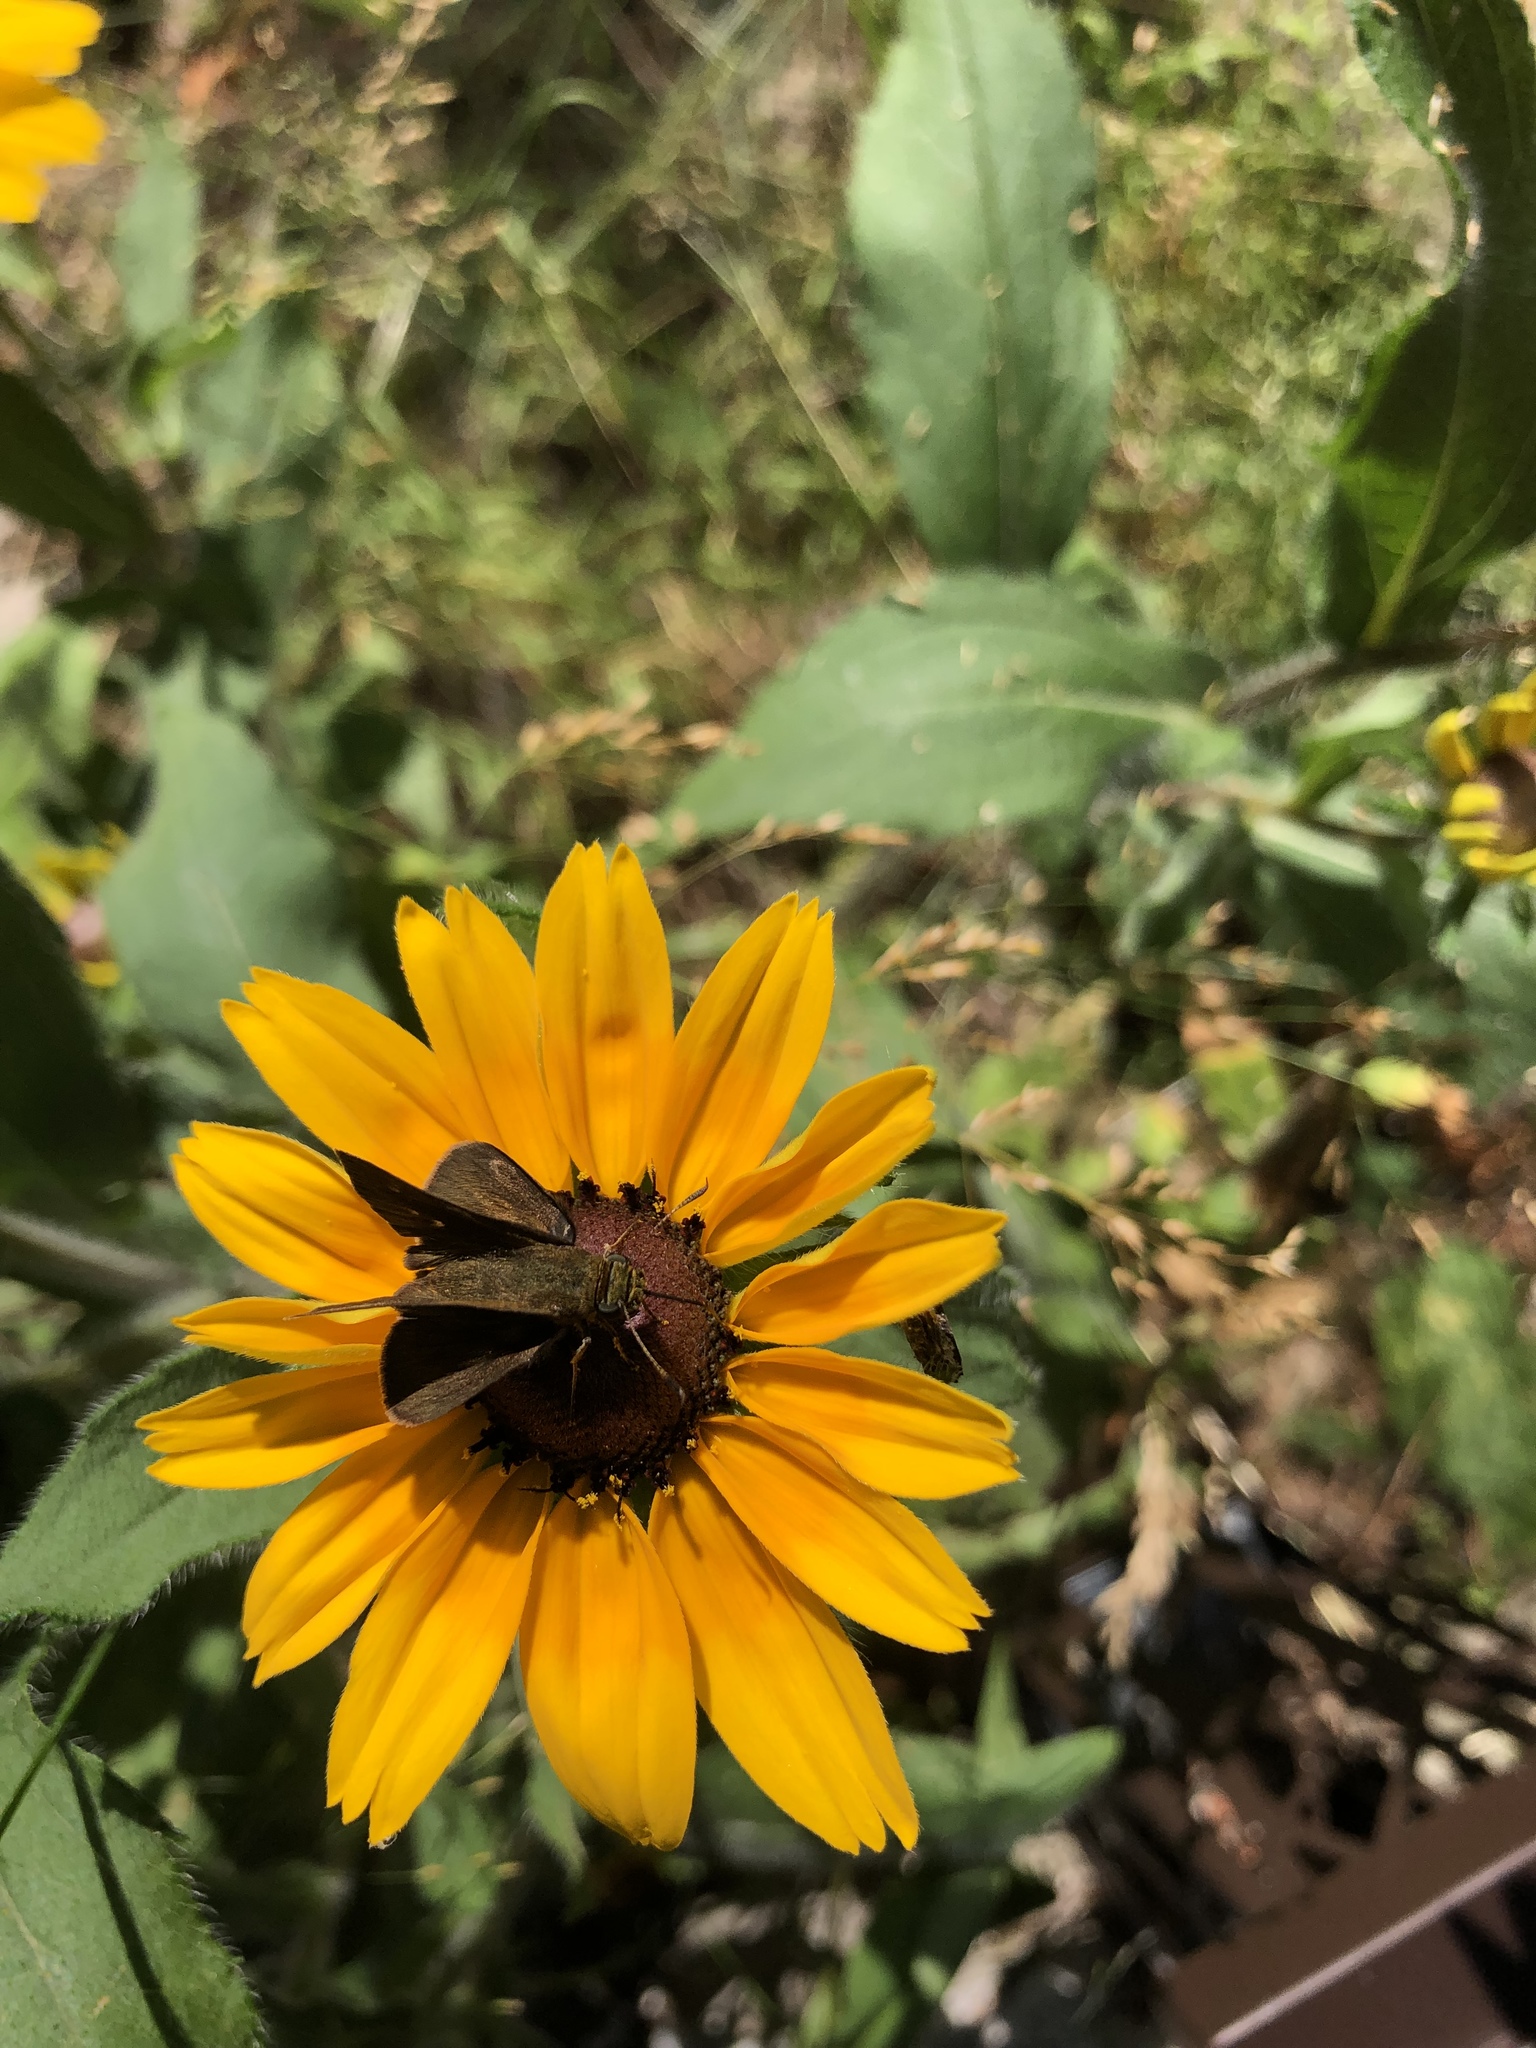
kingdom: Animalia
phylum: Arthropoda
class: Insecta
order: Lepidoptera
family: Hesperiidae
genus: Euphyes
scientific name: Euphyes vestris
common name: Dun skipper
